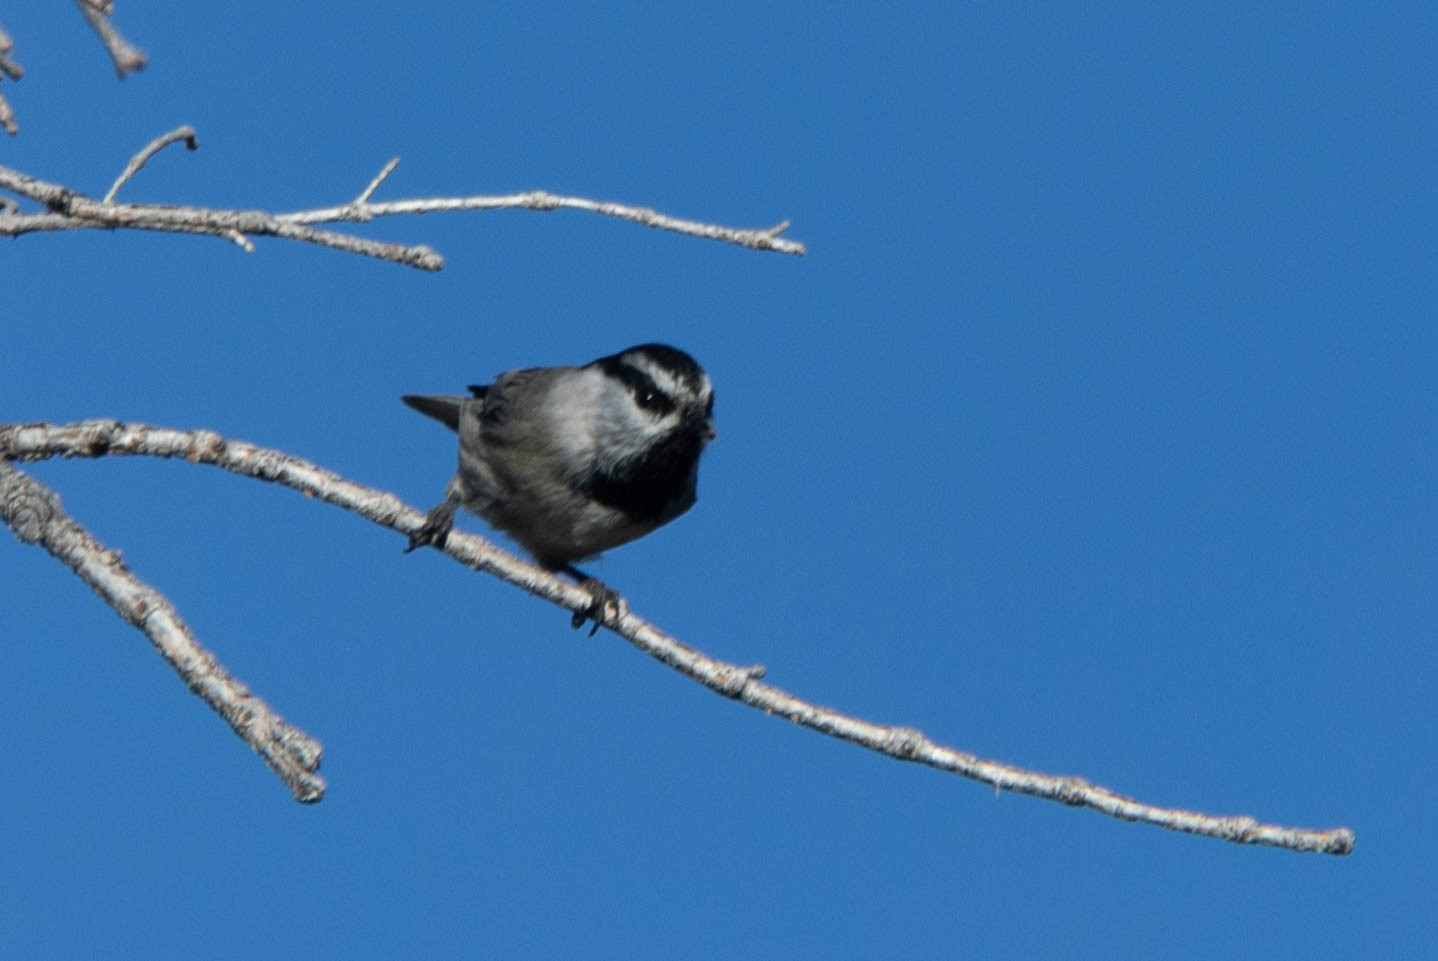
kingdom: Animalia
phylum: Chordata
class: Aves
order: Passeriformes
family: Paridae
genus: Poecile
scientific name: Poecile gambeli
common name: Mountain chickadee
